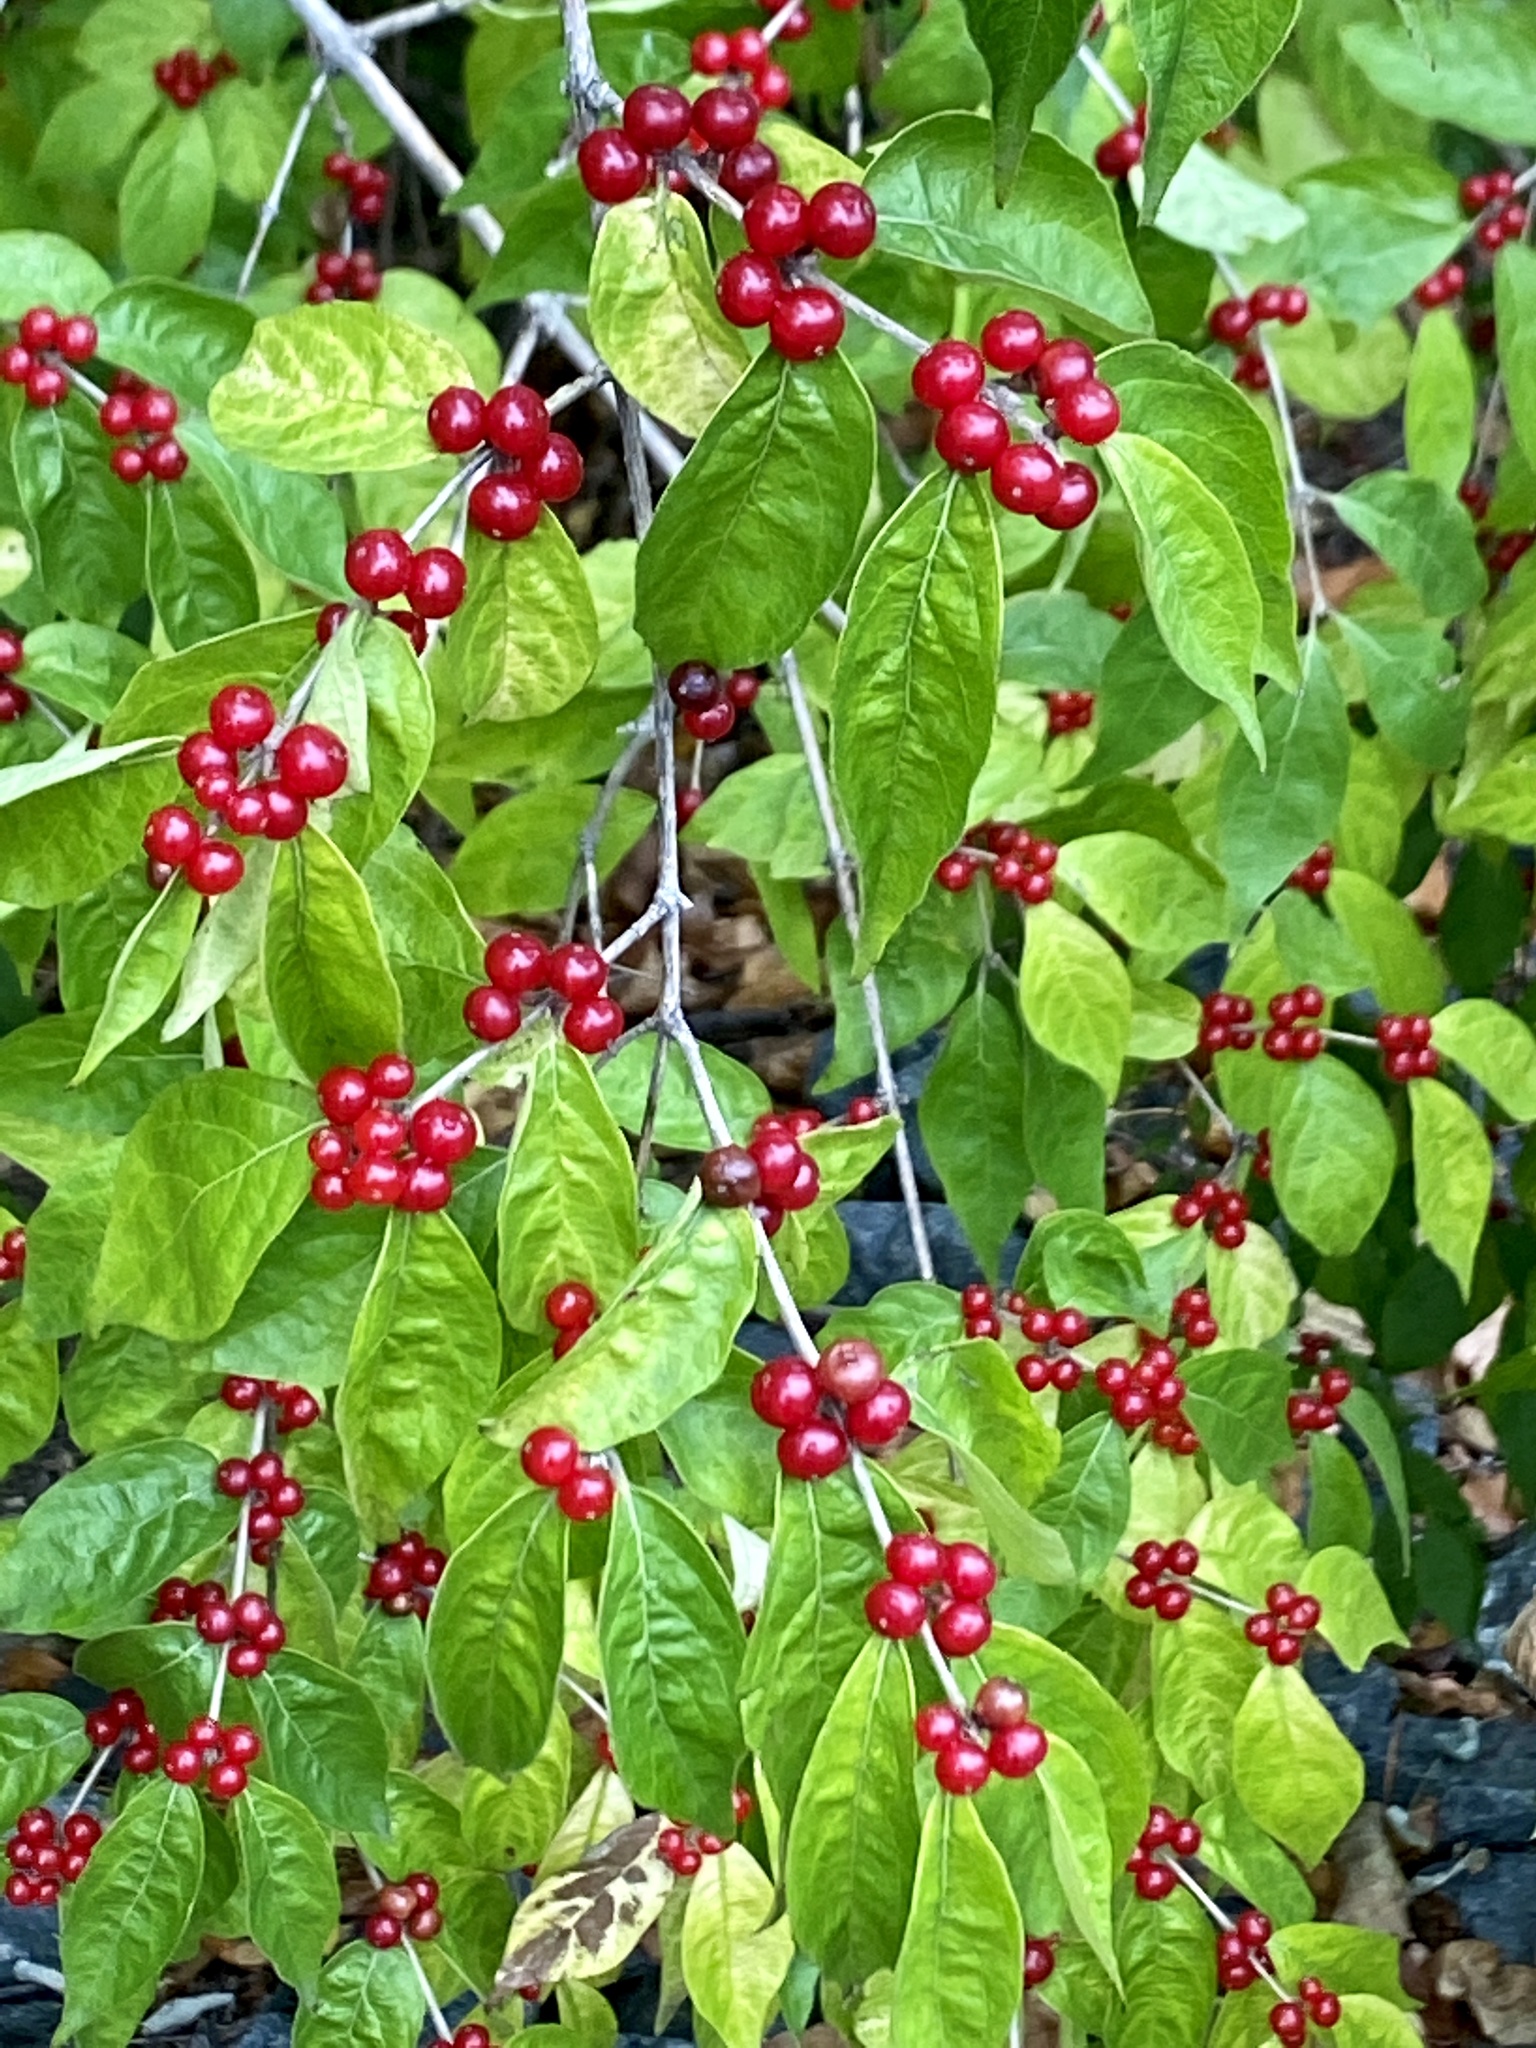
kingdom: Plantae
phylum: Tracheophyta
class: Magnoliopsida
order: Dipsacales
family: Caprifoliaceae
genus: Lonicera
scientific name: Lonicera maackii
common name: Amur honeysuckle
